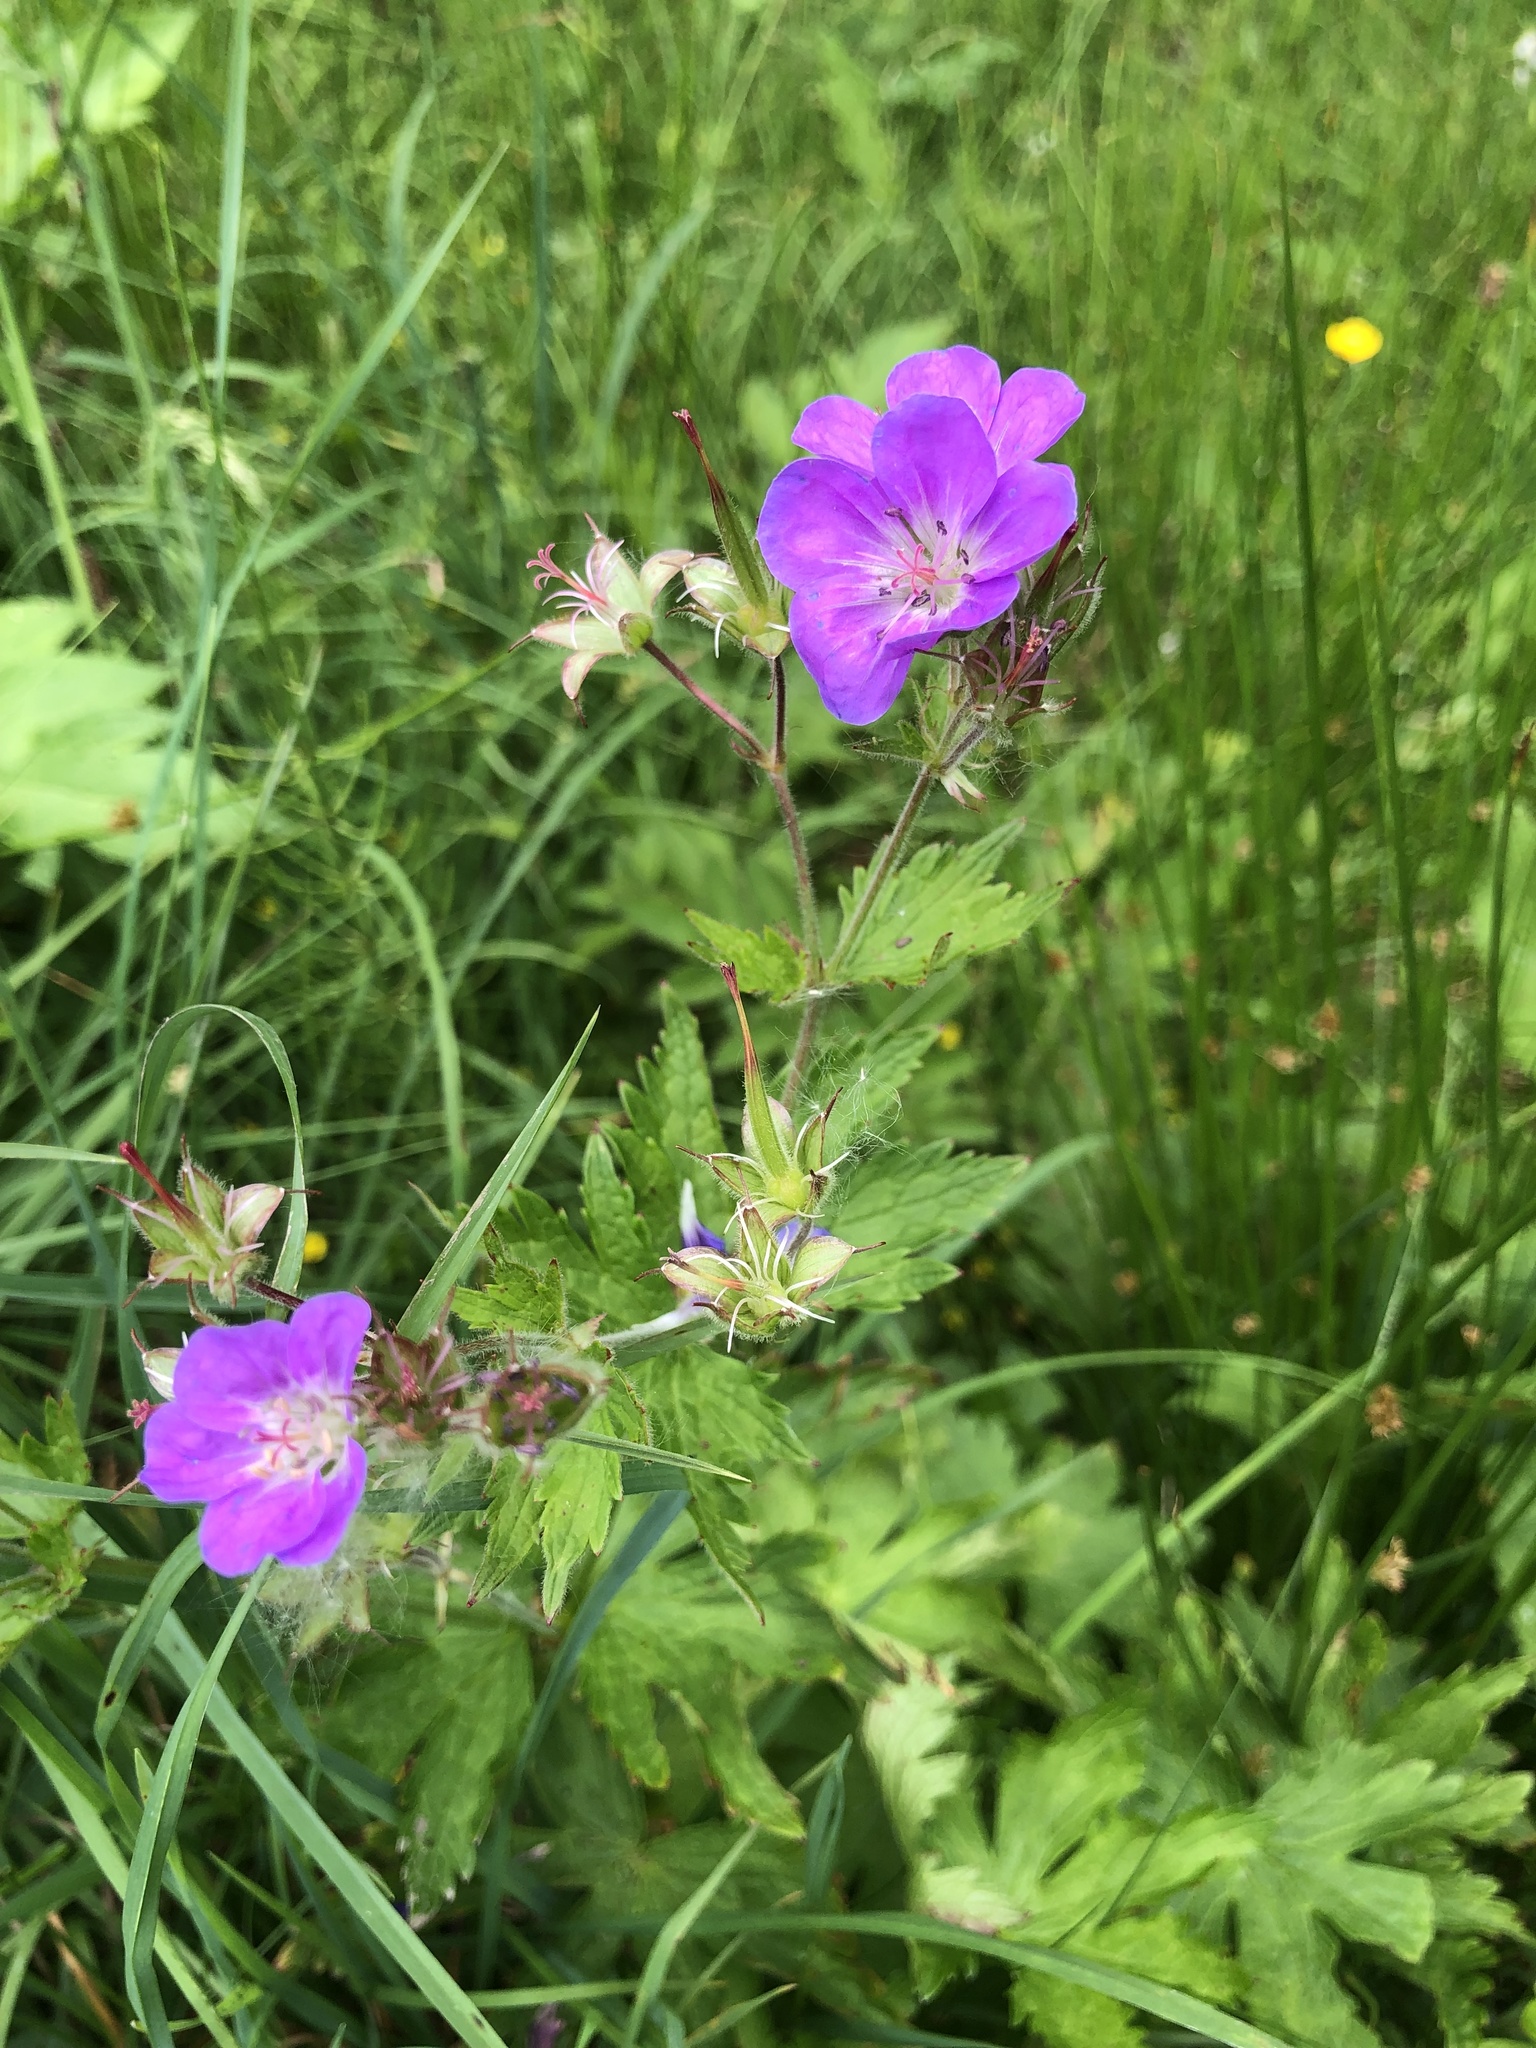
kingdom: Plantae
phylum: Tracheophyta
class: Magnoliopsida
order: Geraniales
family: Geraniaceae
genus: Geranium
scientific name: Geranium sylvaticum
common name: Wood crane's-bill
